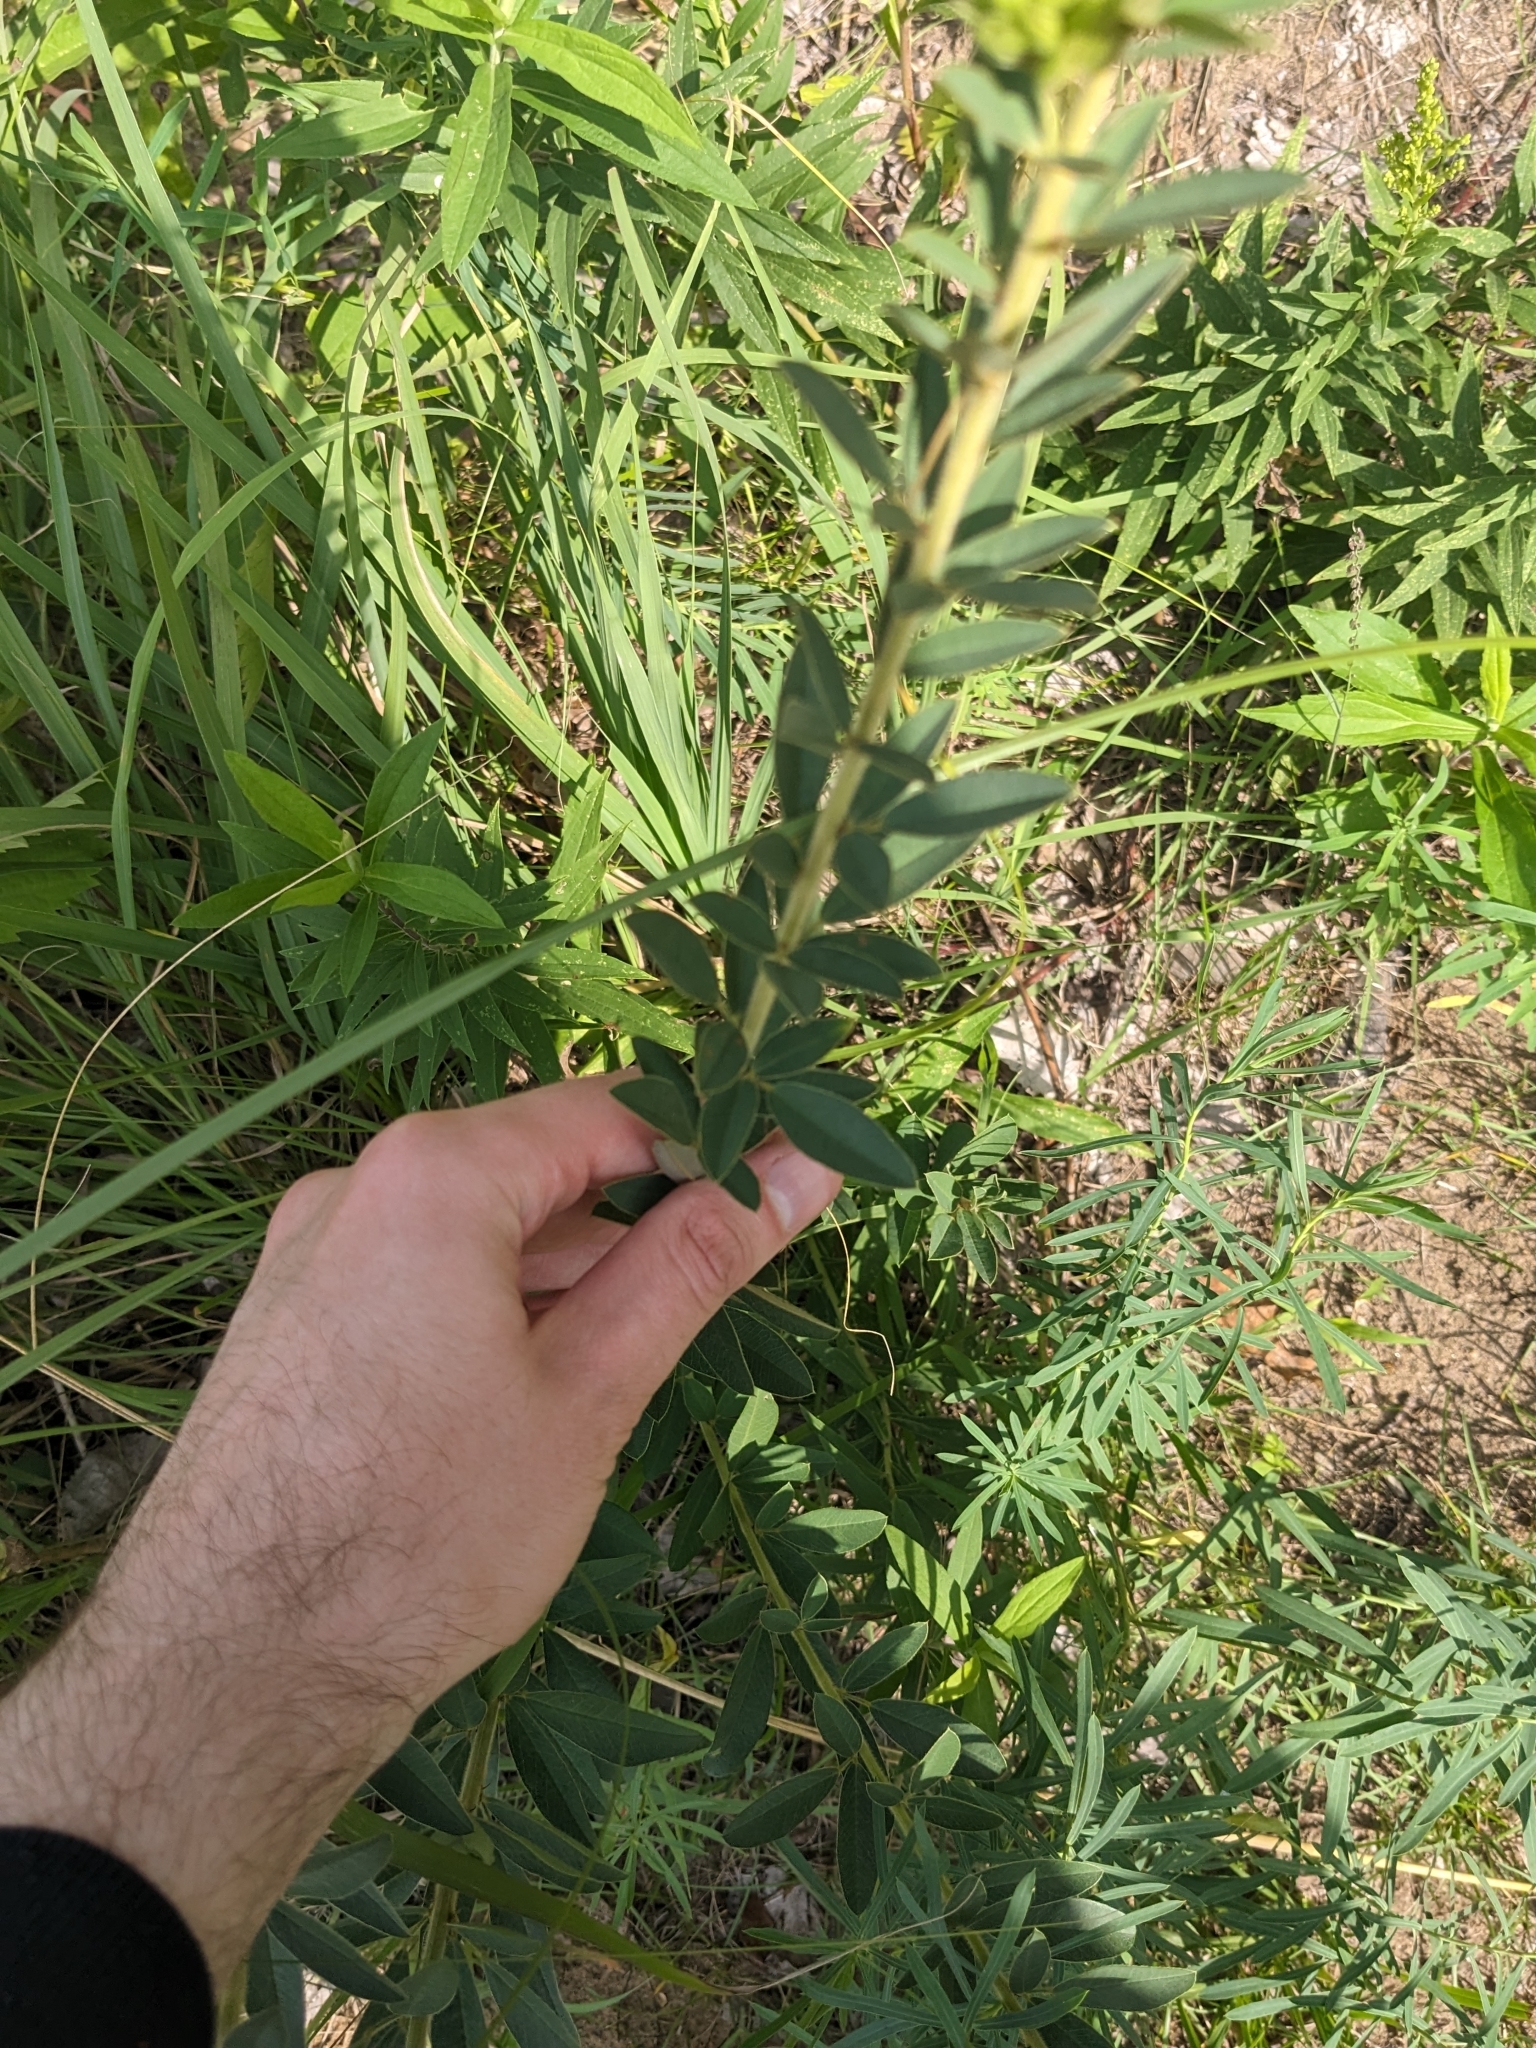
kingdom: Plantae
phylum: Tracheophyta
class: Magnoliopsida
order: Fabales
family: Fabaceae
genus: Lespedeza
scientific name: Lespedeza capitata
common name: Dusty clover
